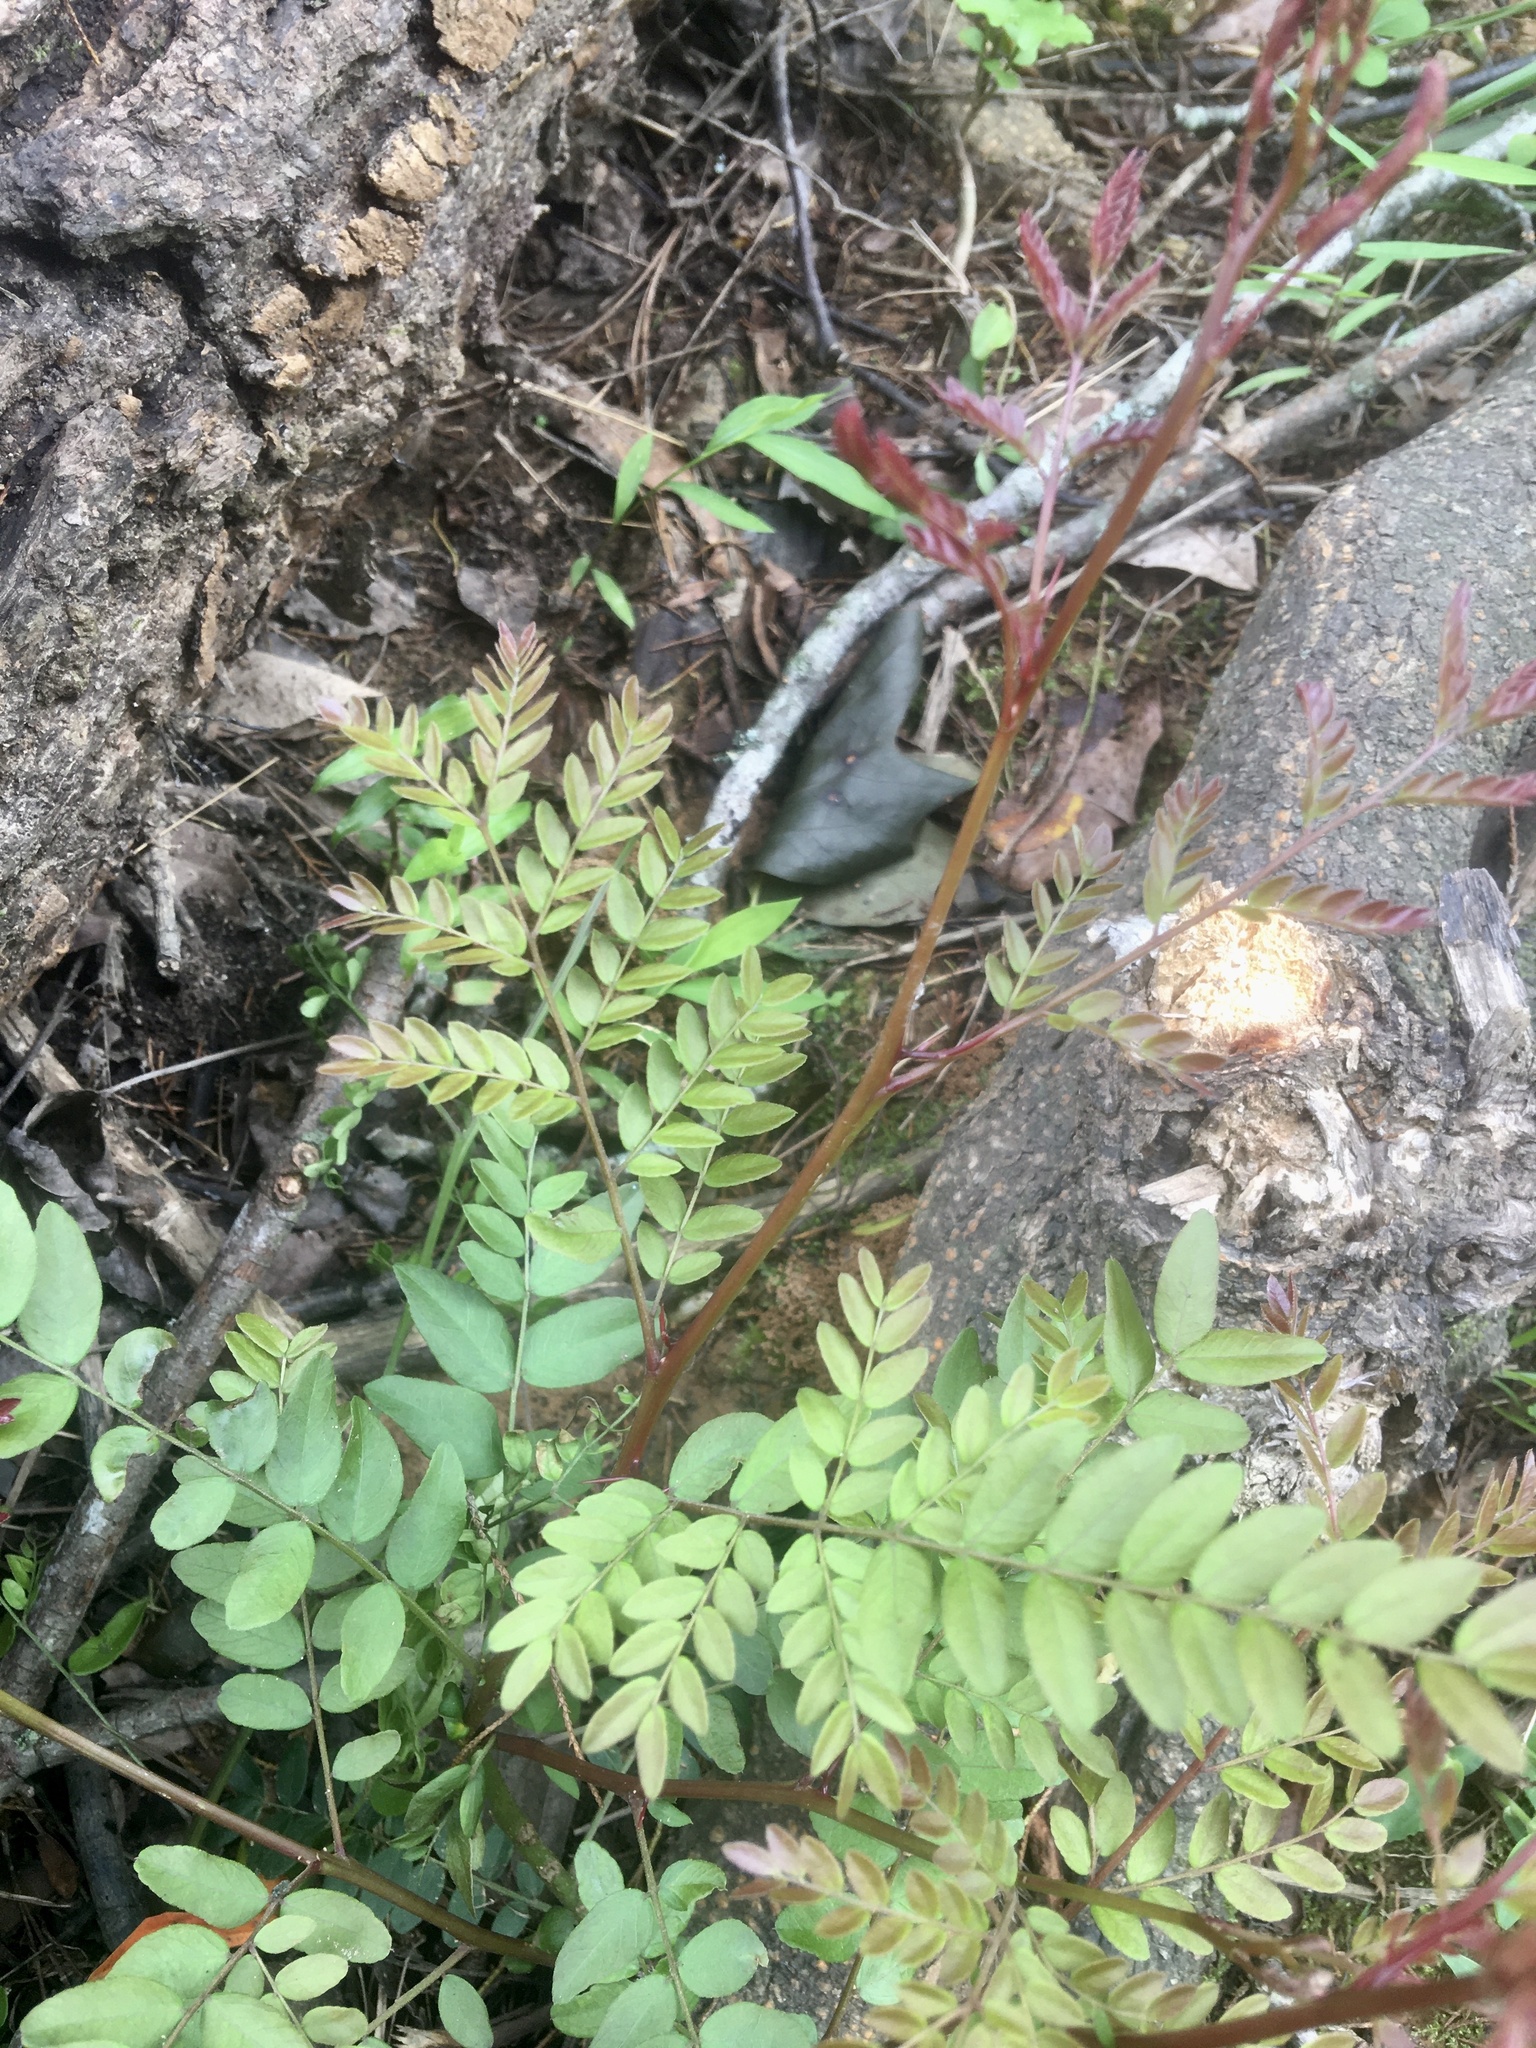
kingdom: Plantae
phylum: Tracheophyta
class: Magnoliopsida
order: Fabales
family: Fabaceae
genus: Gleditsia
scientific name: Gleditsia triacanthos
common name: Common honeylocust
